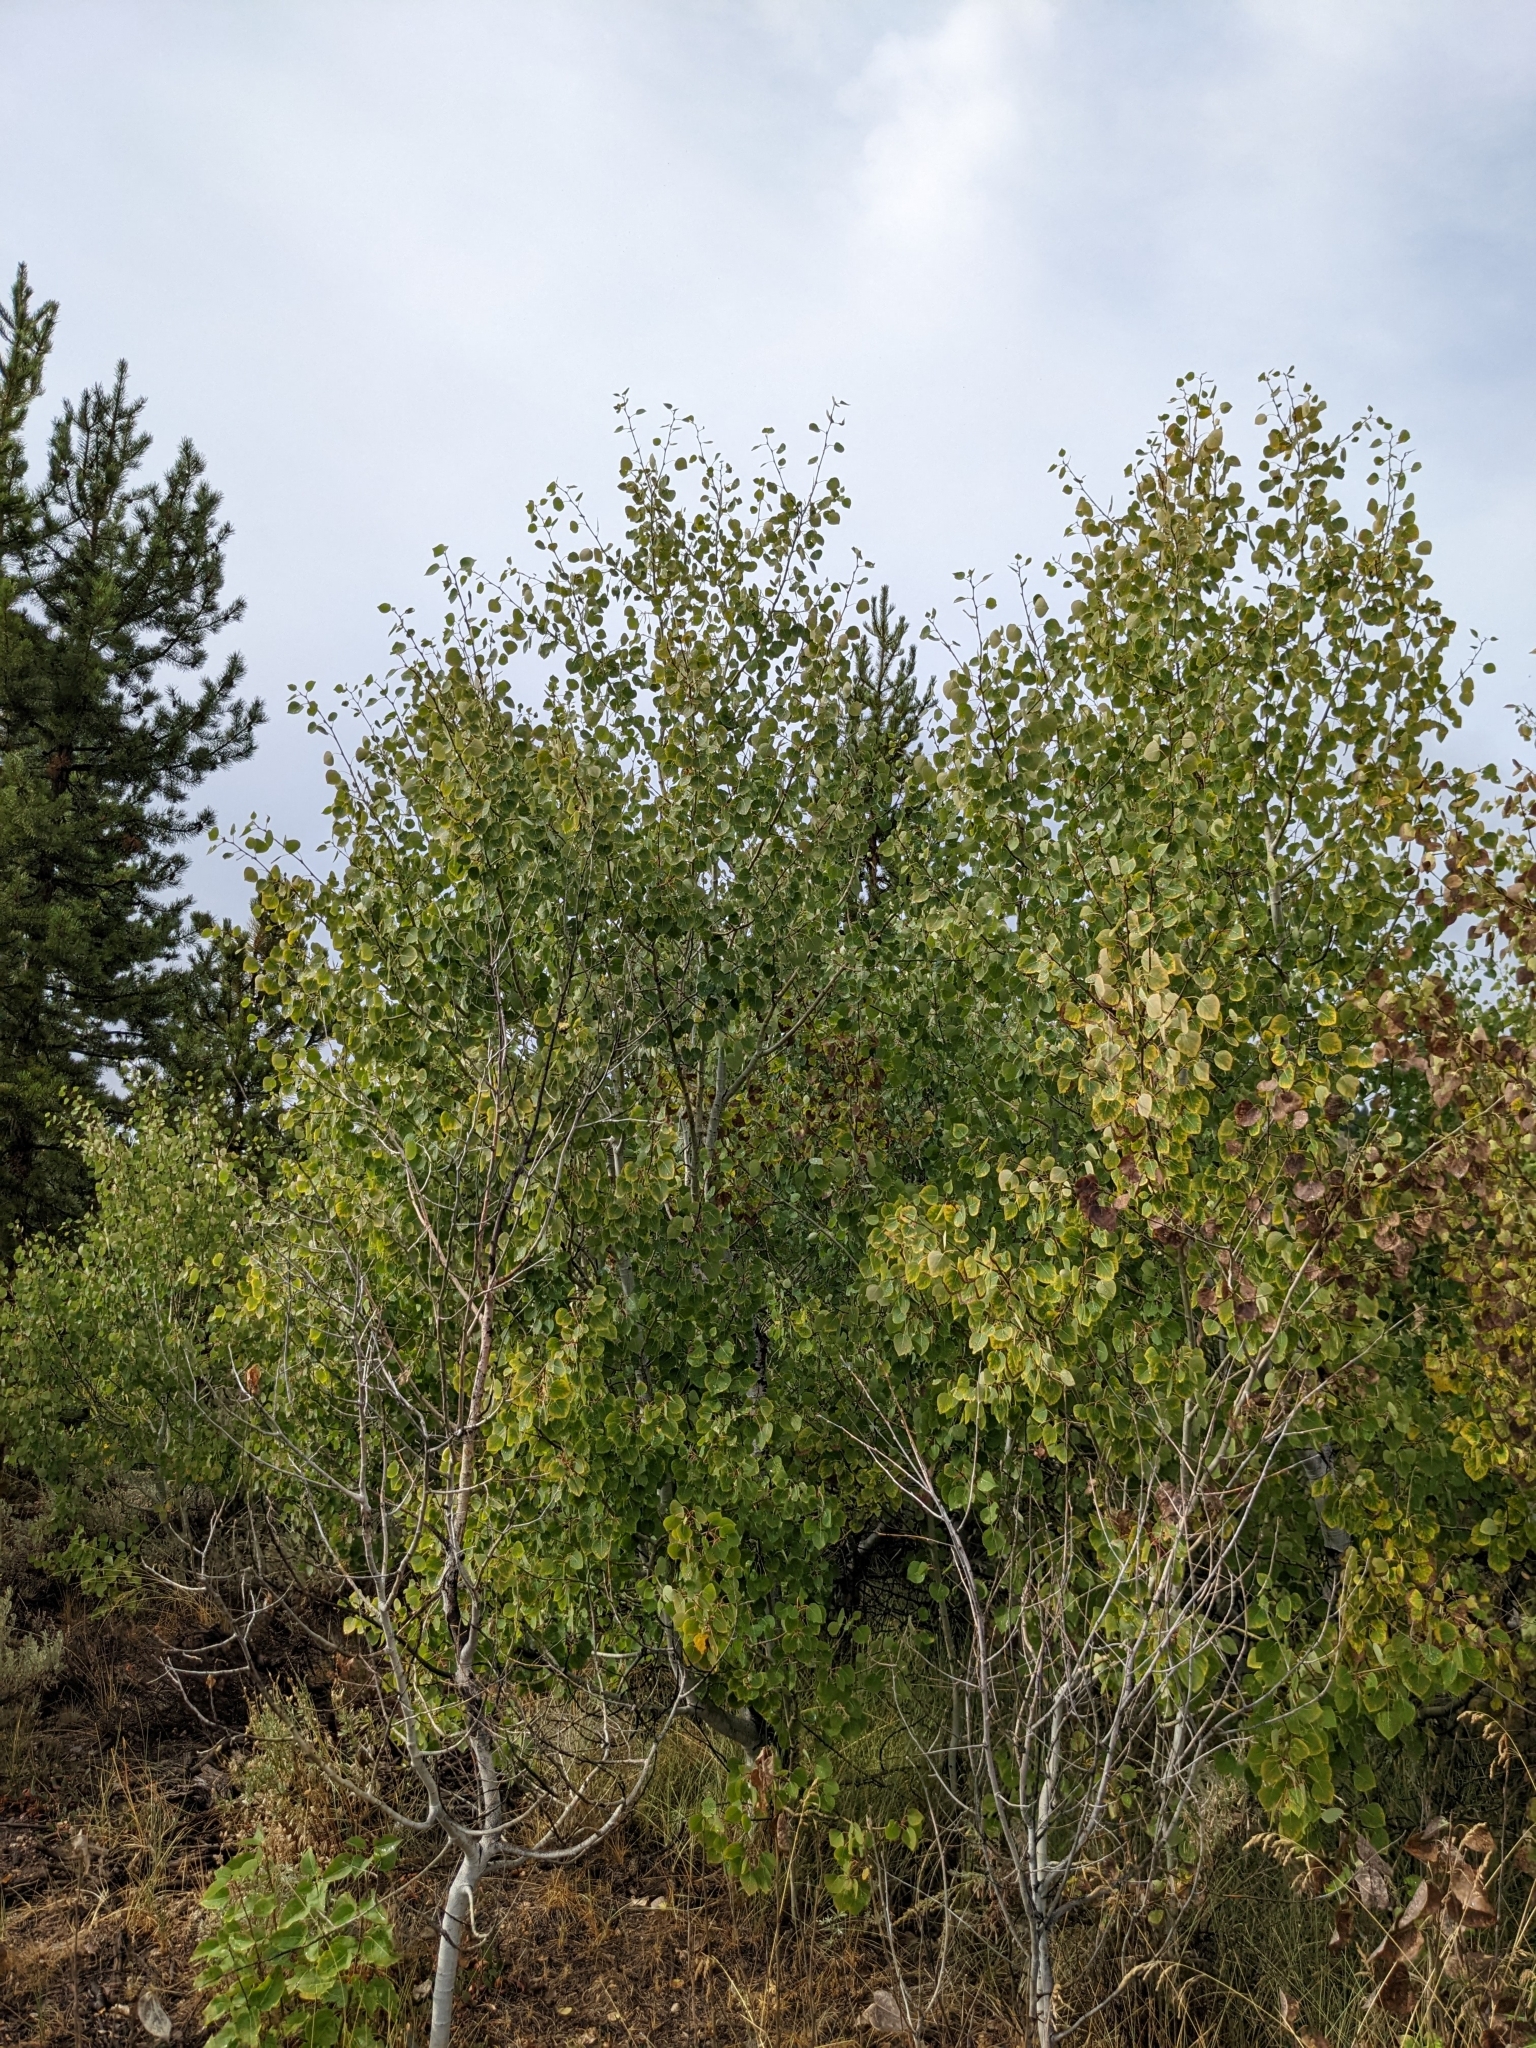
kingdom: Plantae
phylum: Tracheophyta
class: Magnoliopsida
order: Malpighiales
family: Salicaceae
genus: Populus
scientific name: Populus tremuloides
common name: Quaking aspen
